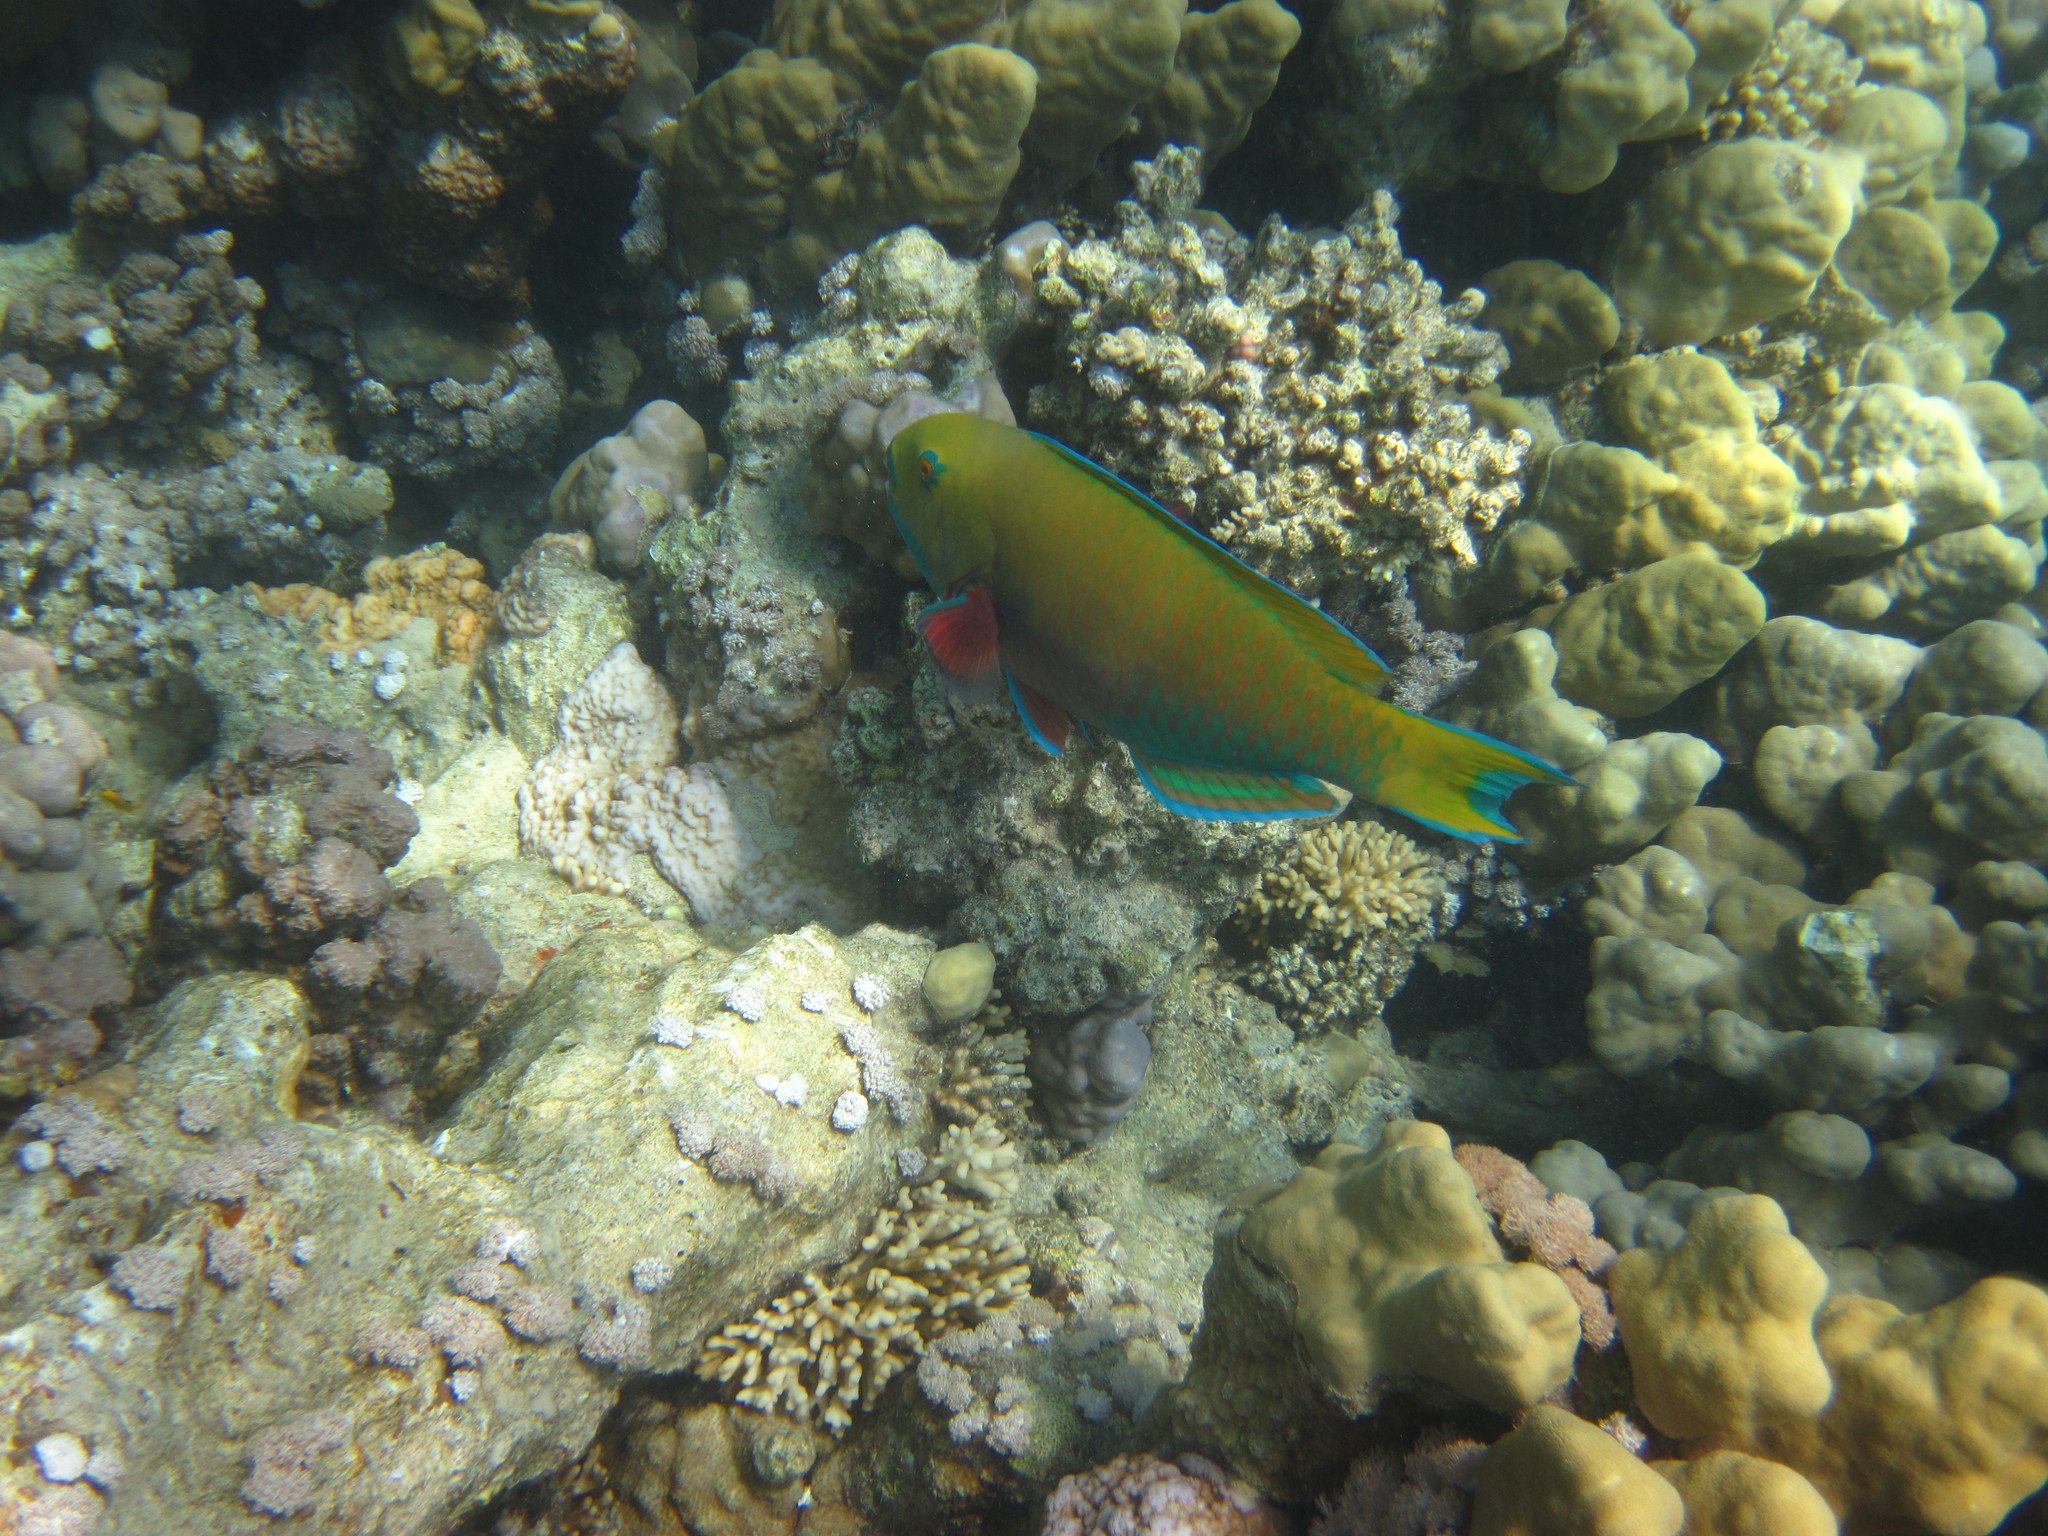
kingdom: Animalia
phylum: Chordata
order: Perciformes
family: Scaridae
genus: Chlorurus
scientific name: Chlorurus gibbus
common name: Heavybeak parrotfish
